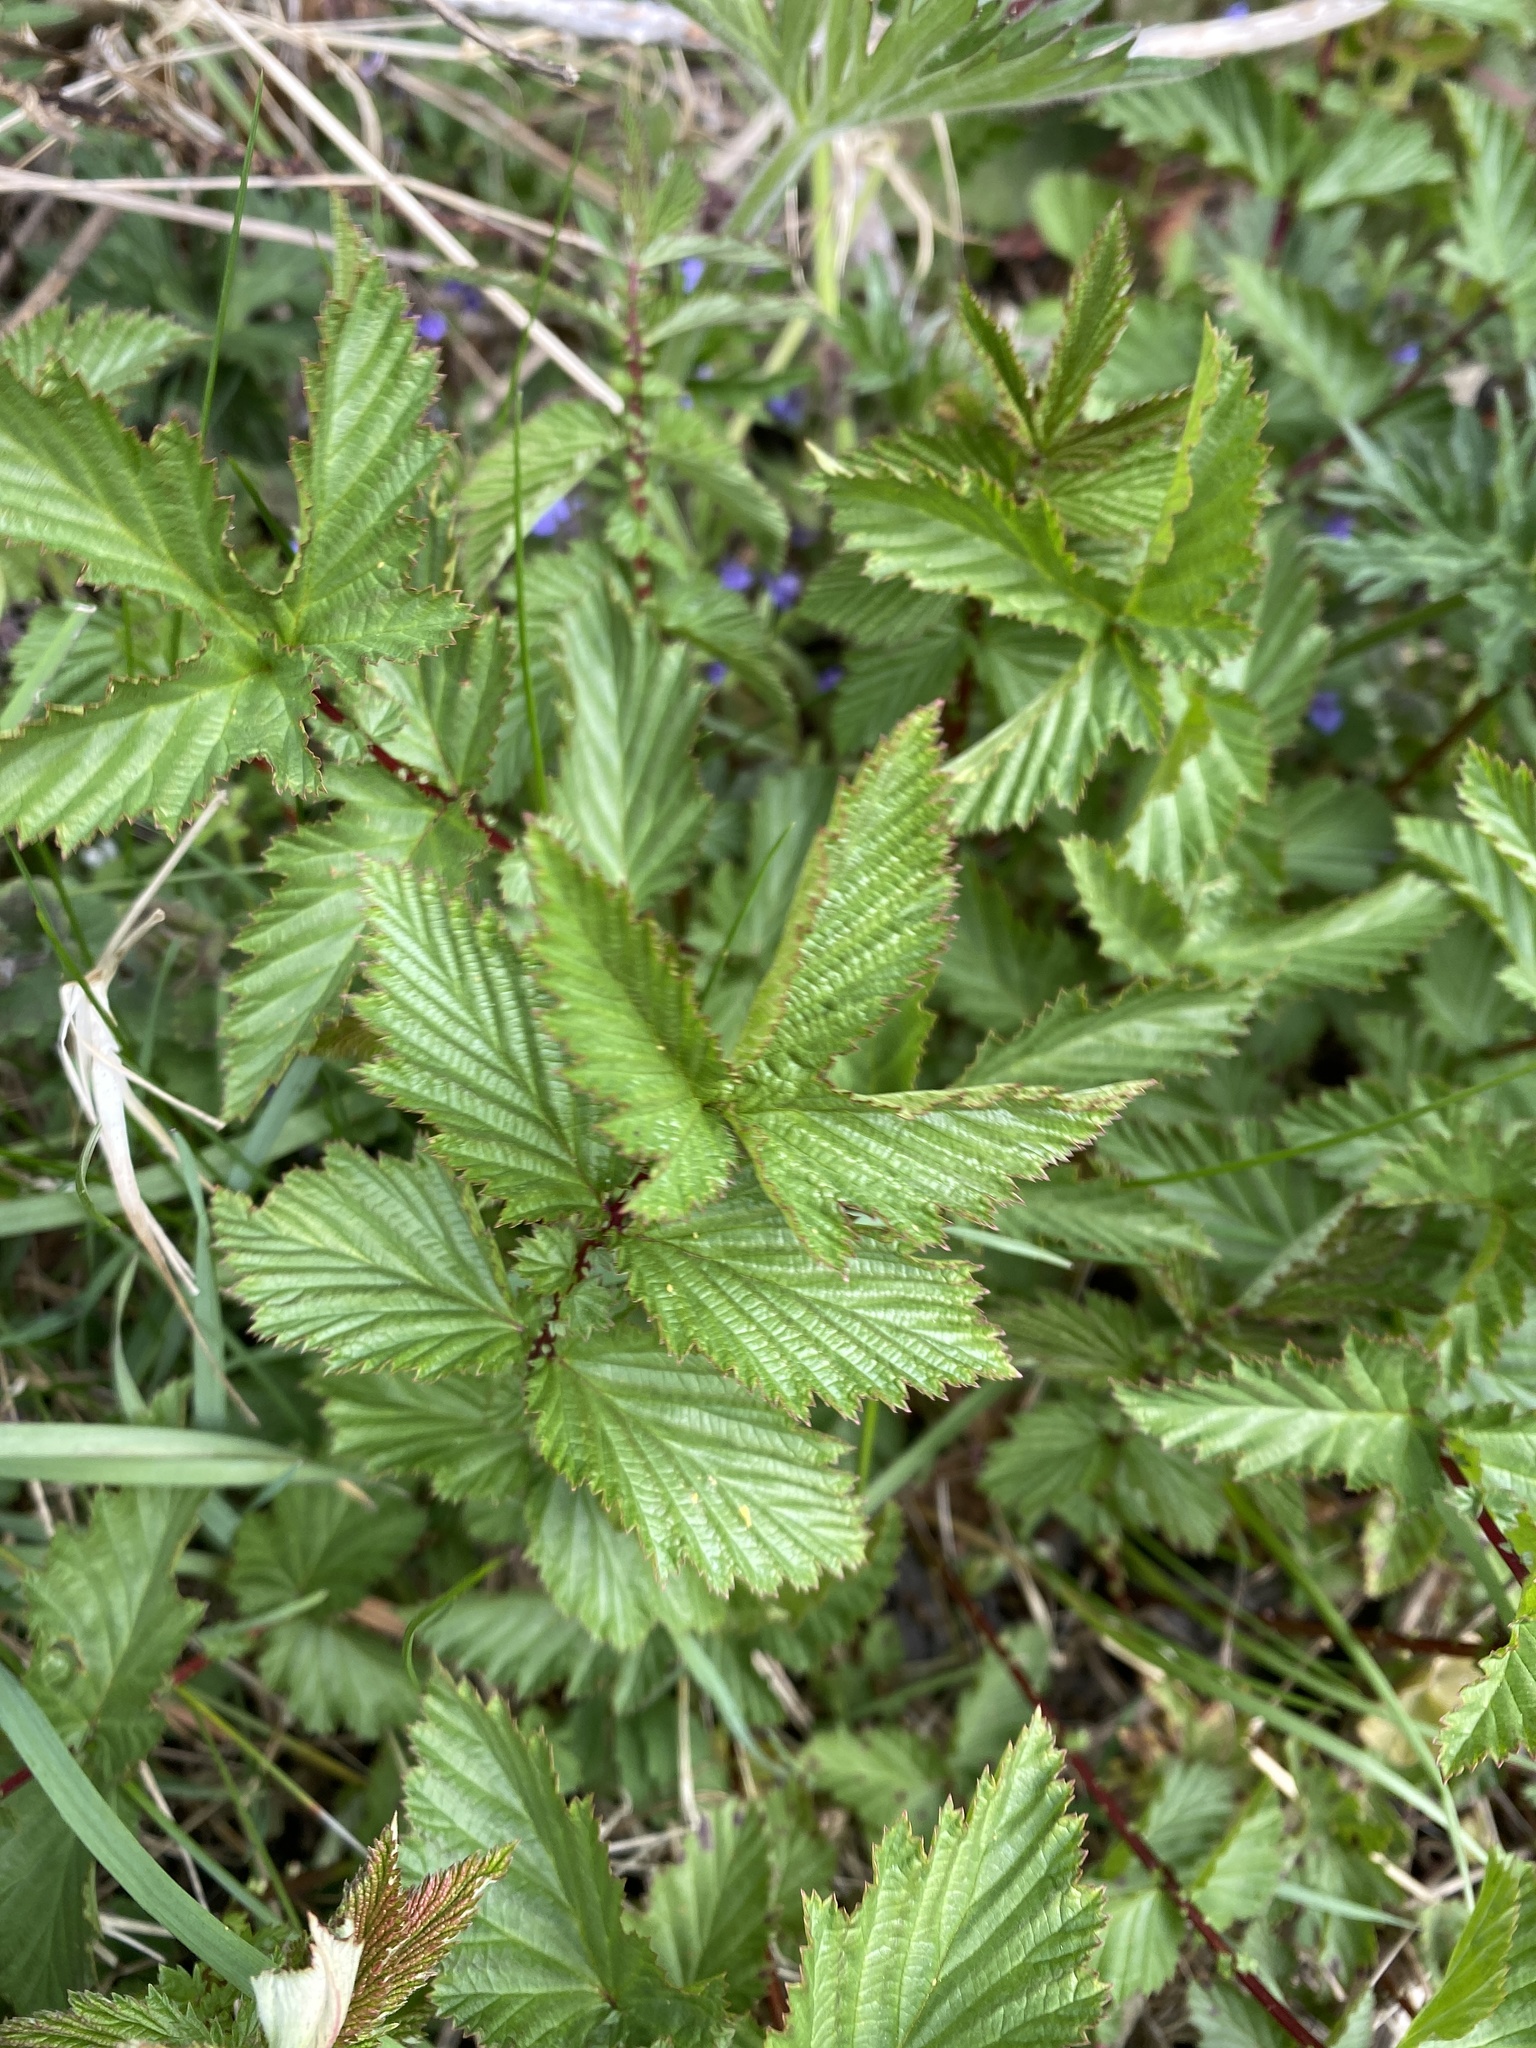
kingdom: Plantae
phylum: Tracheophyta
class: Magnoliopsida
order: Rosales
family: Rosaceae
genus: Filipendula
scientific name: Filipendula ulmaria
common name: Meadowsweet
